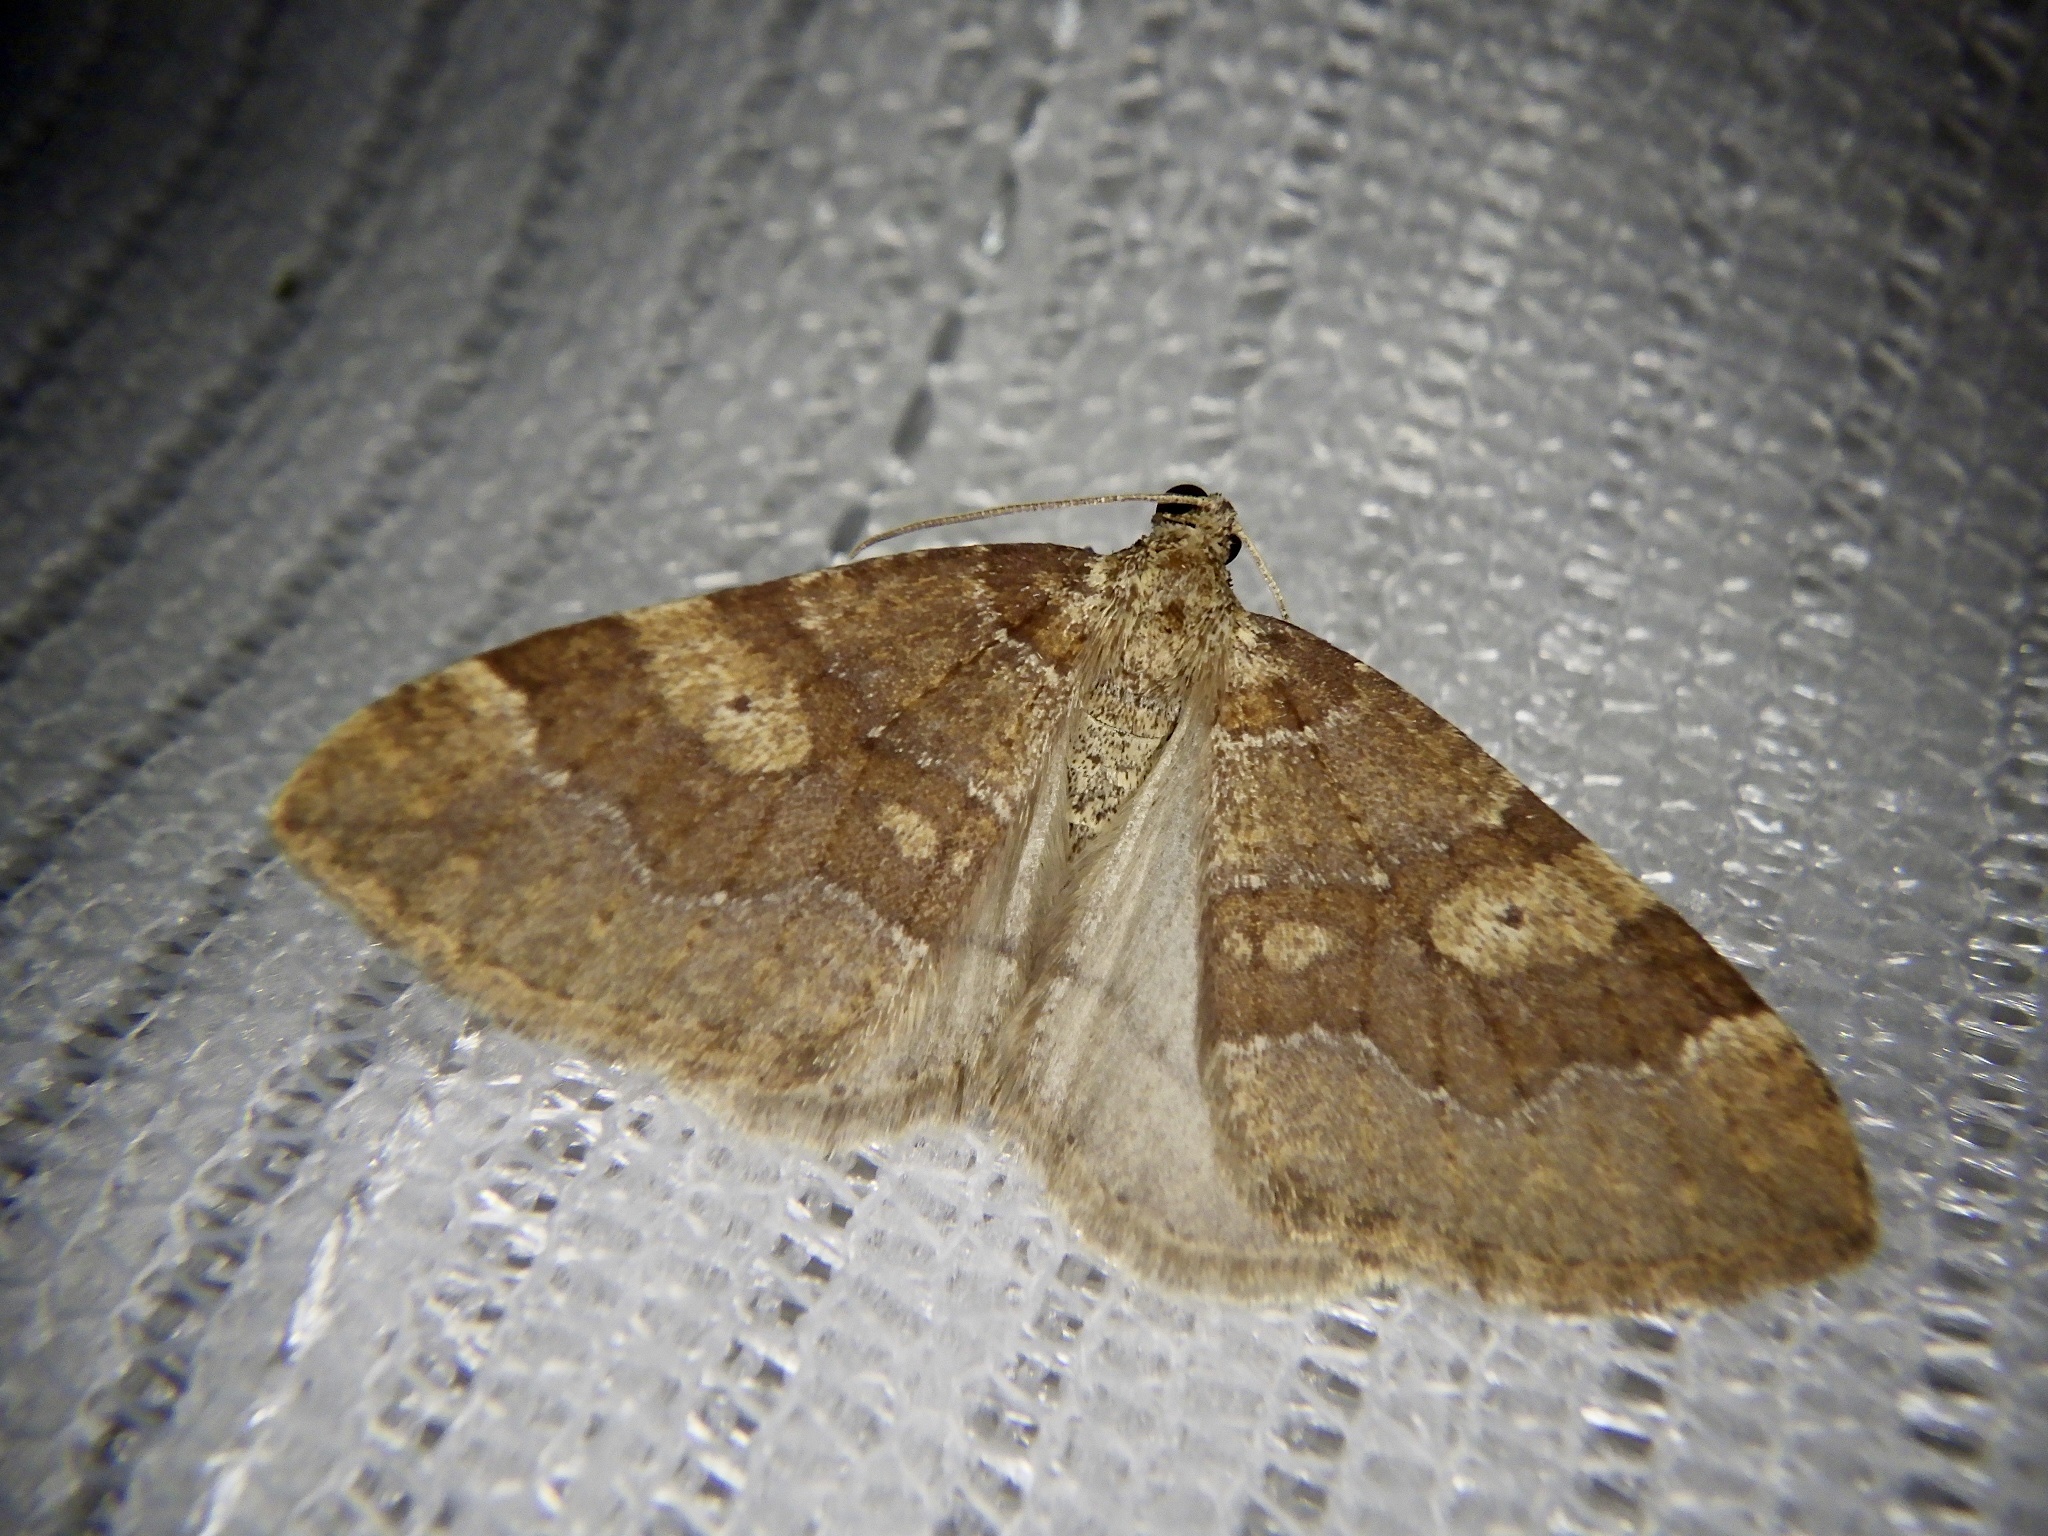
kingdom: Animalia
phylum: Arthropoda
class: Insecta
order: Lepidoptera
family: Geometridae
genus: Idiotephria
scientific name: Idiotephria evanescens
